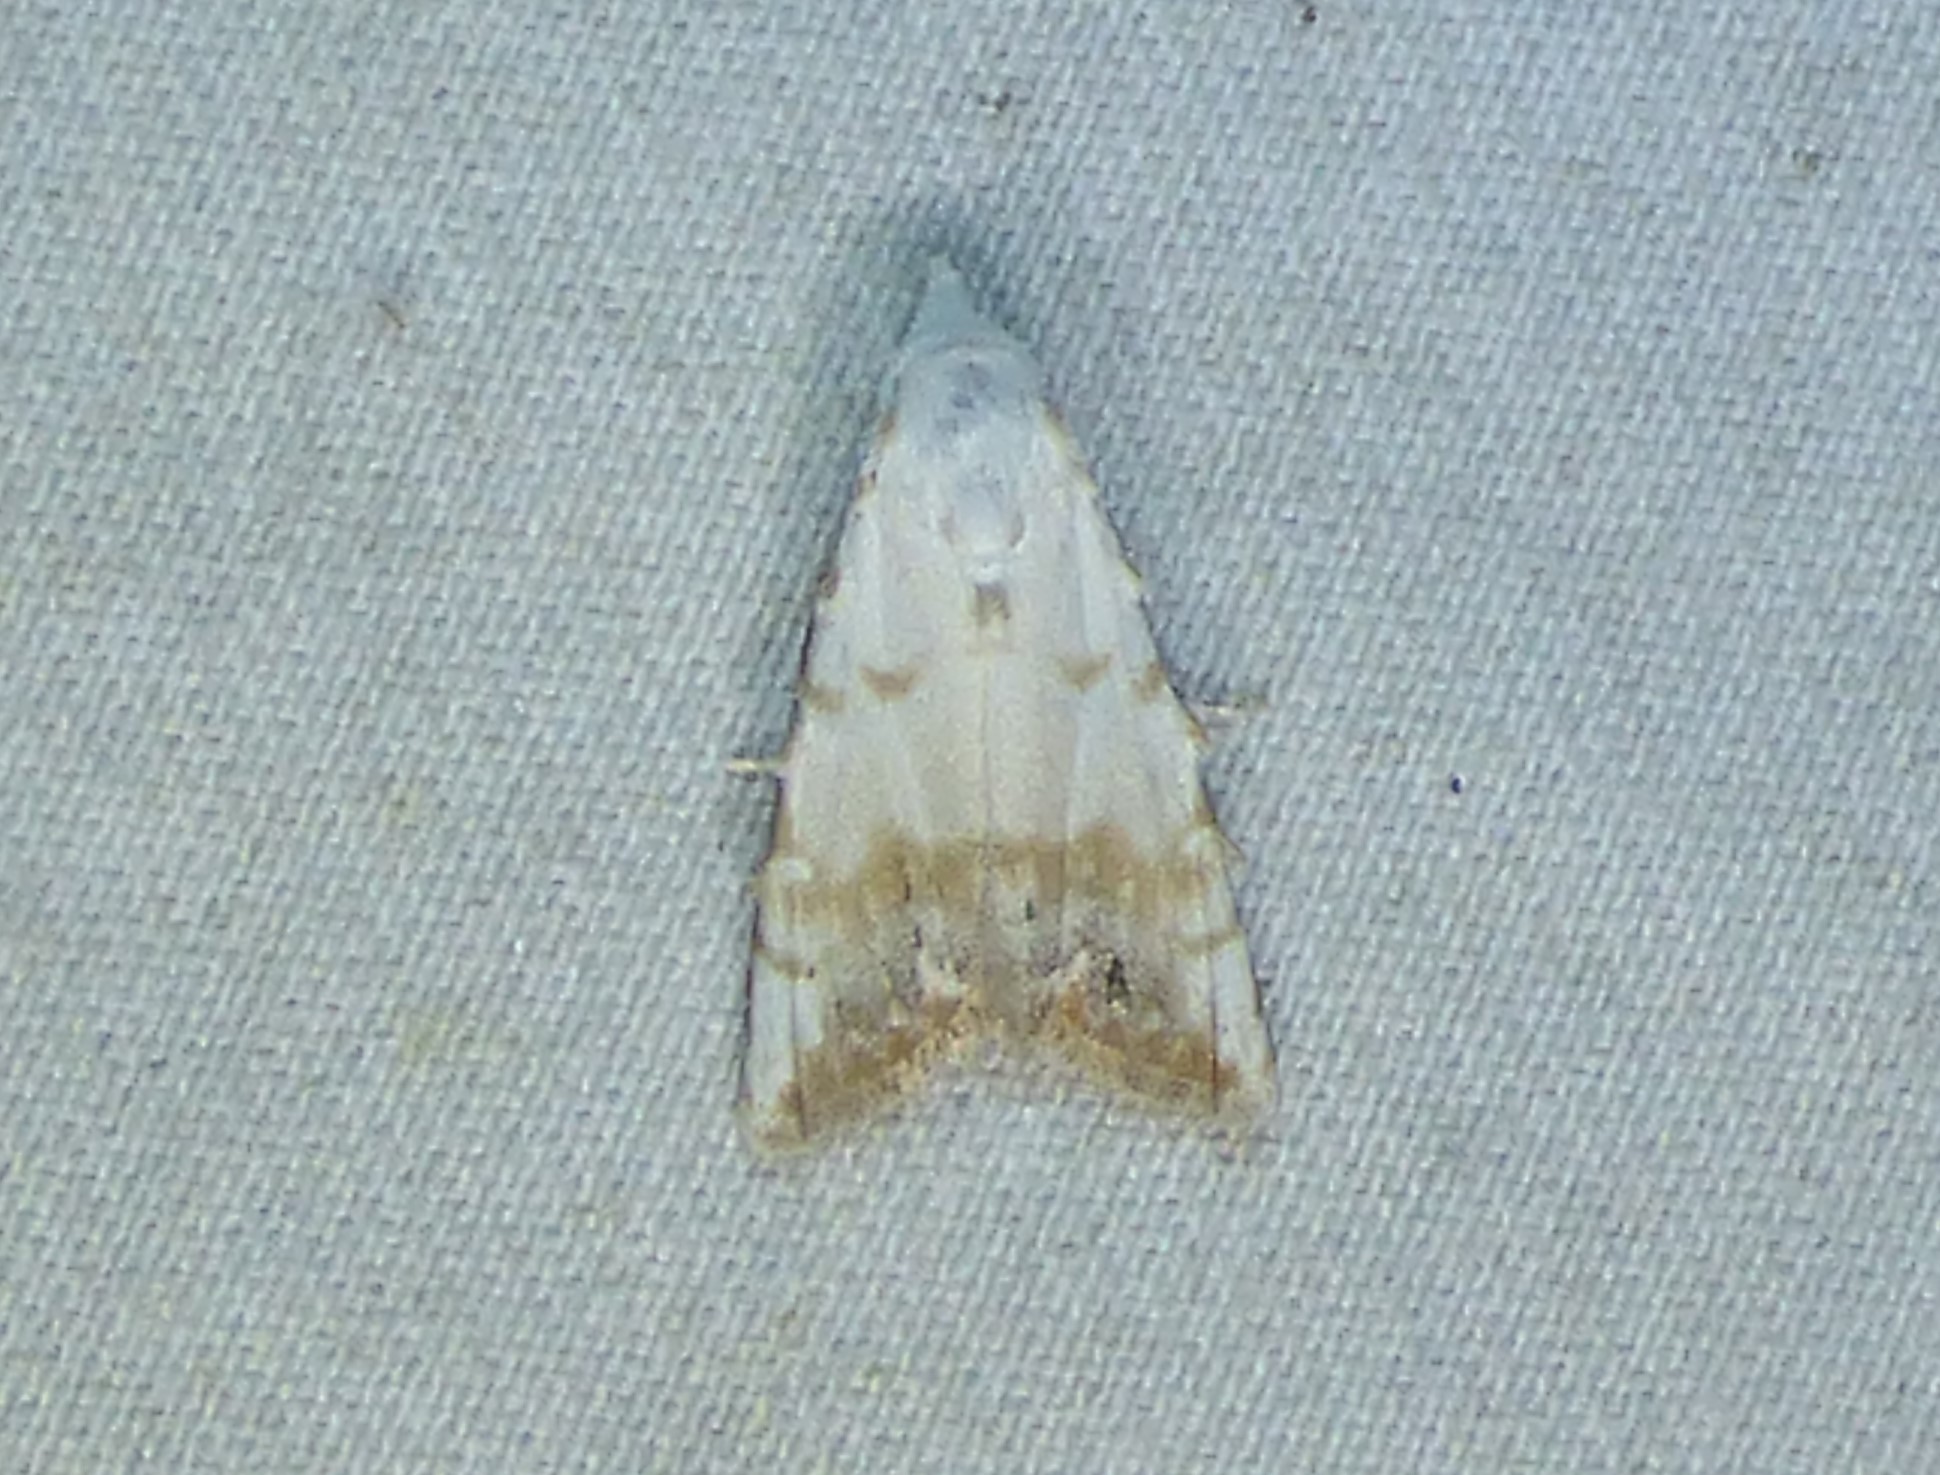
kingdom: Animalia
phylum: Arthropoda
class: Insecta
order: Lepidoptera
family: Nolidae
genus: Nola
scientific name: Nola cereella
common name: Sorghum webworm moth
